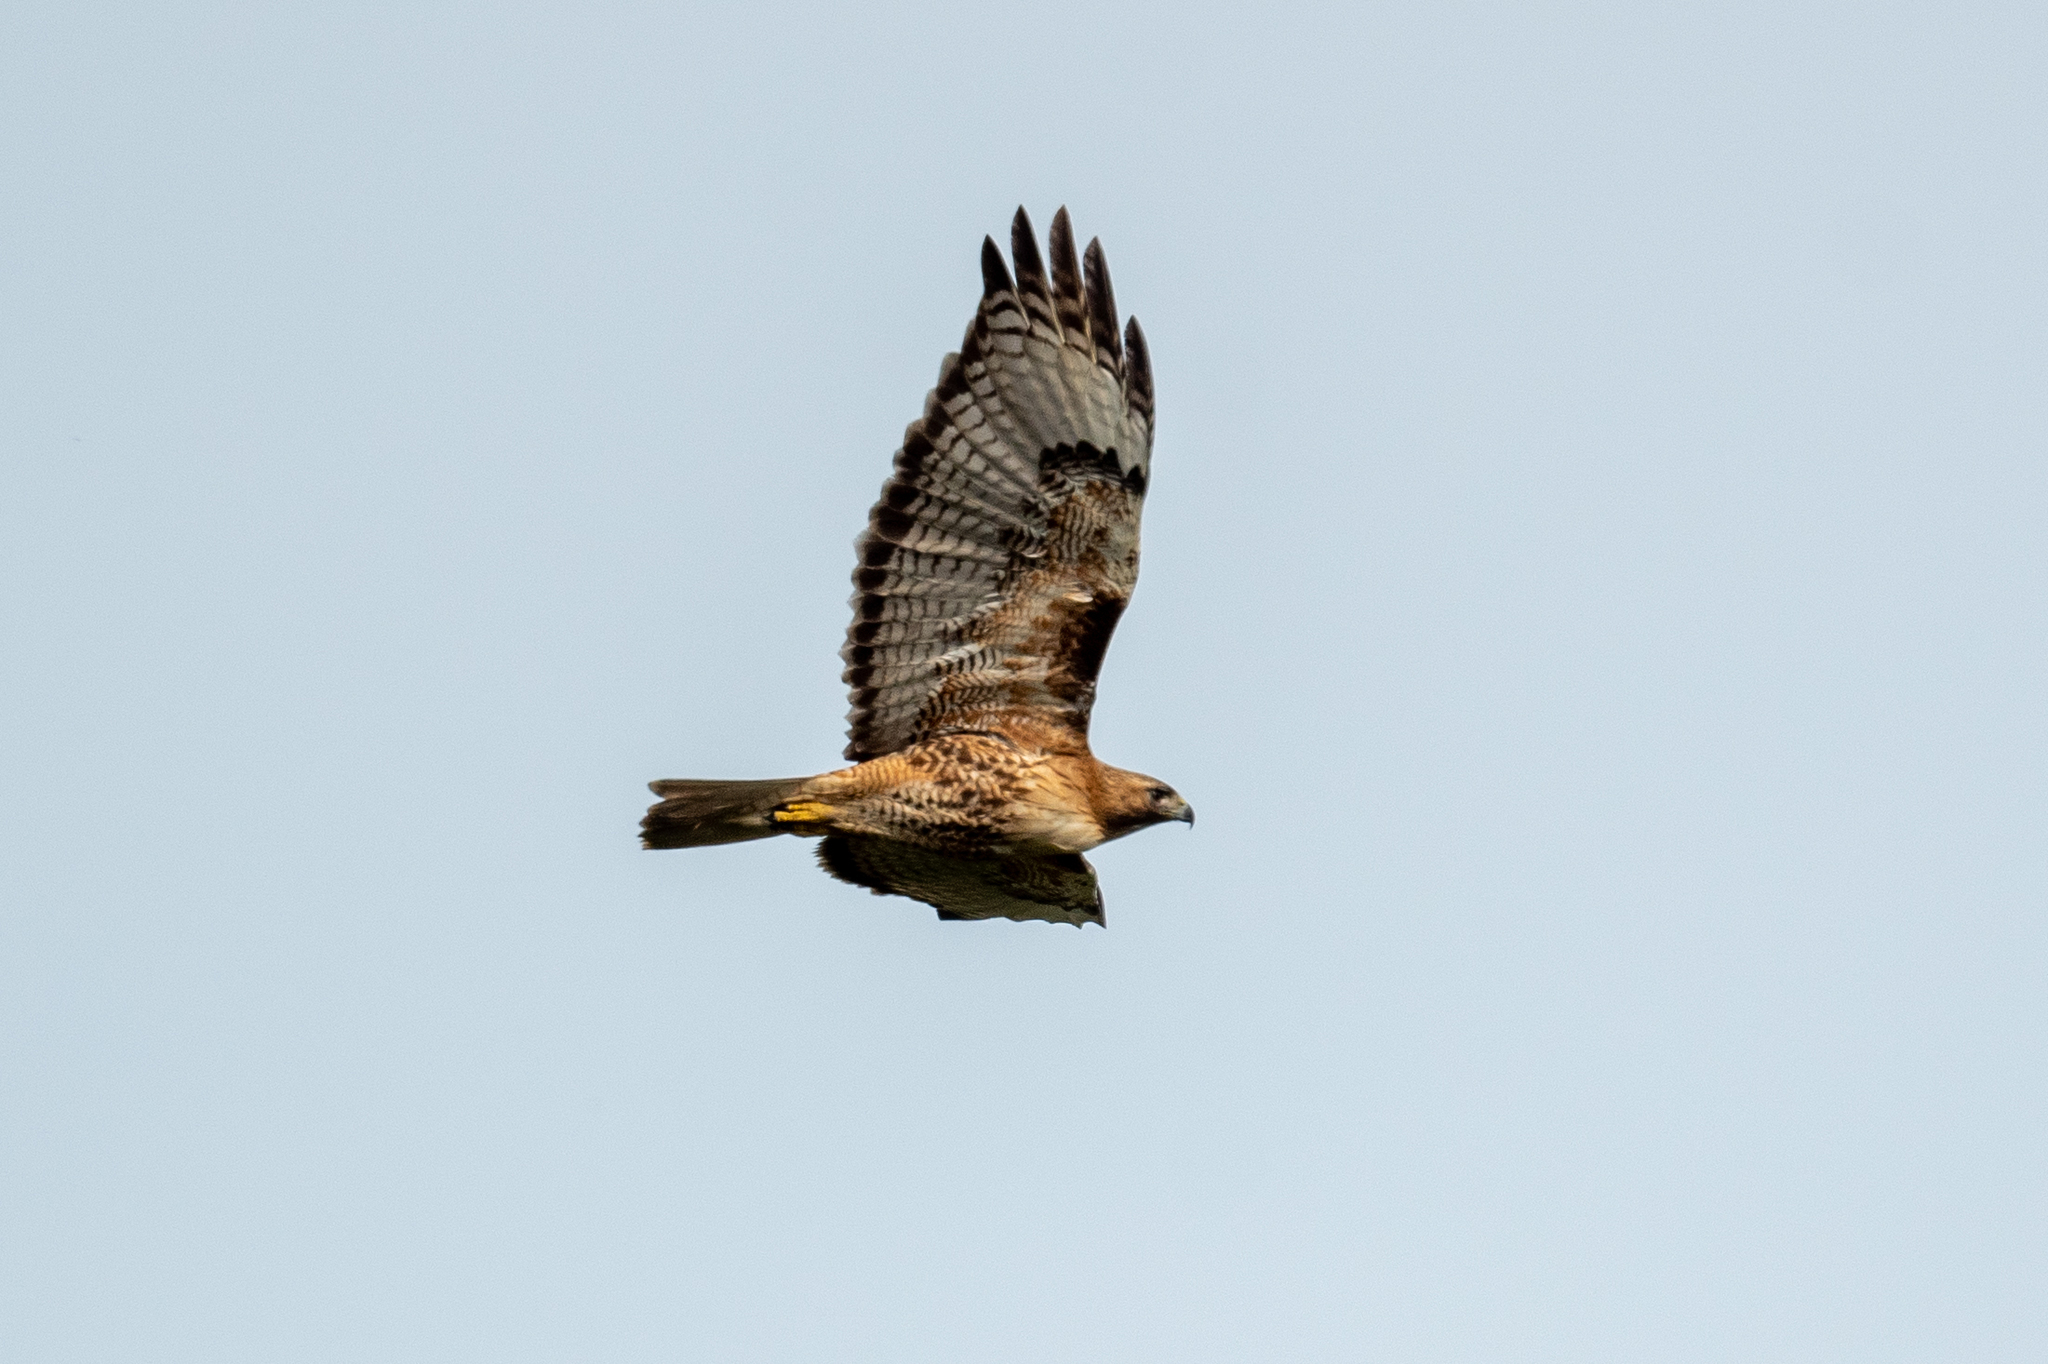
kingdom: Animalia
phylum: Chordata
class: Aves
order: Accipitriformes
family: Accipitridae
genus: Buteo
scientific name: Buteo jamaicensis
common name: Red-tailed hawk
